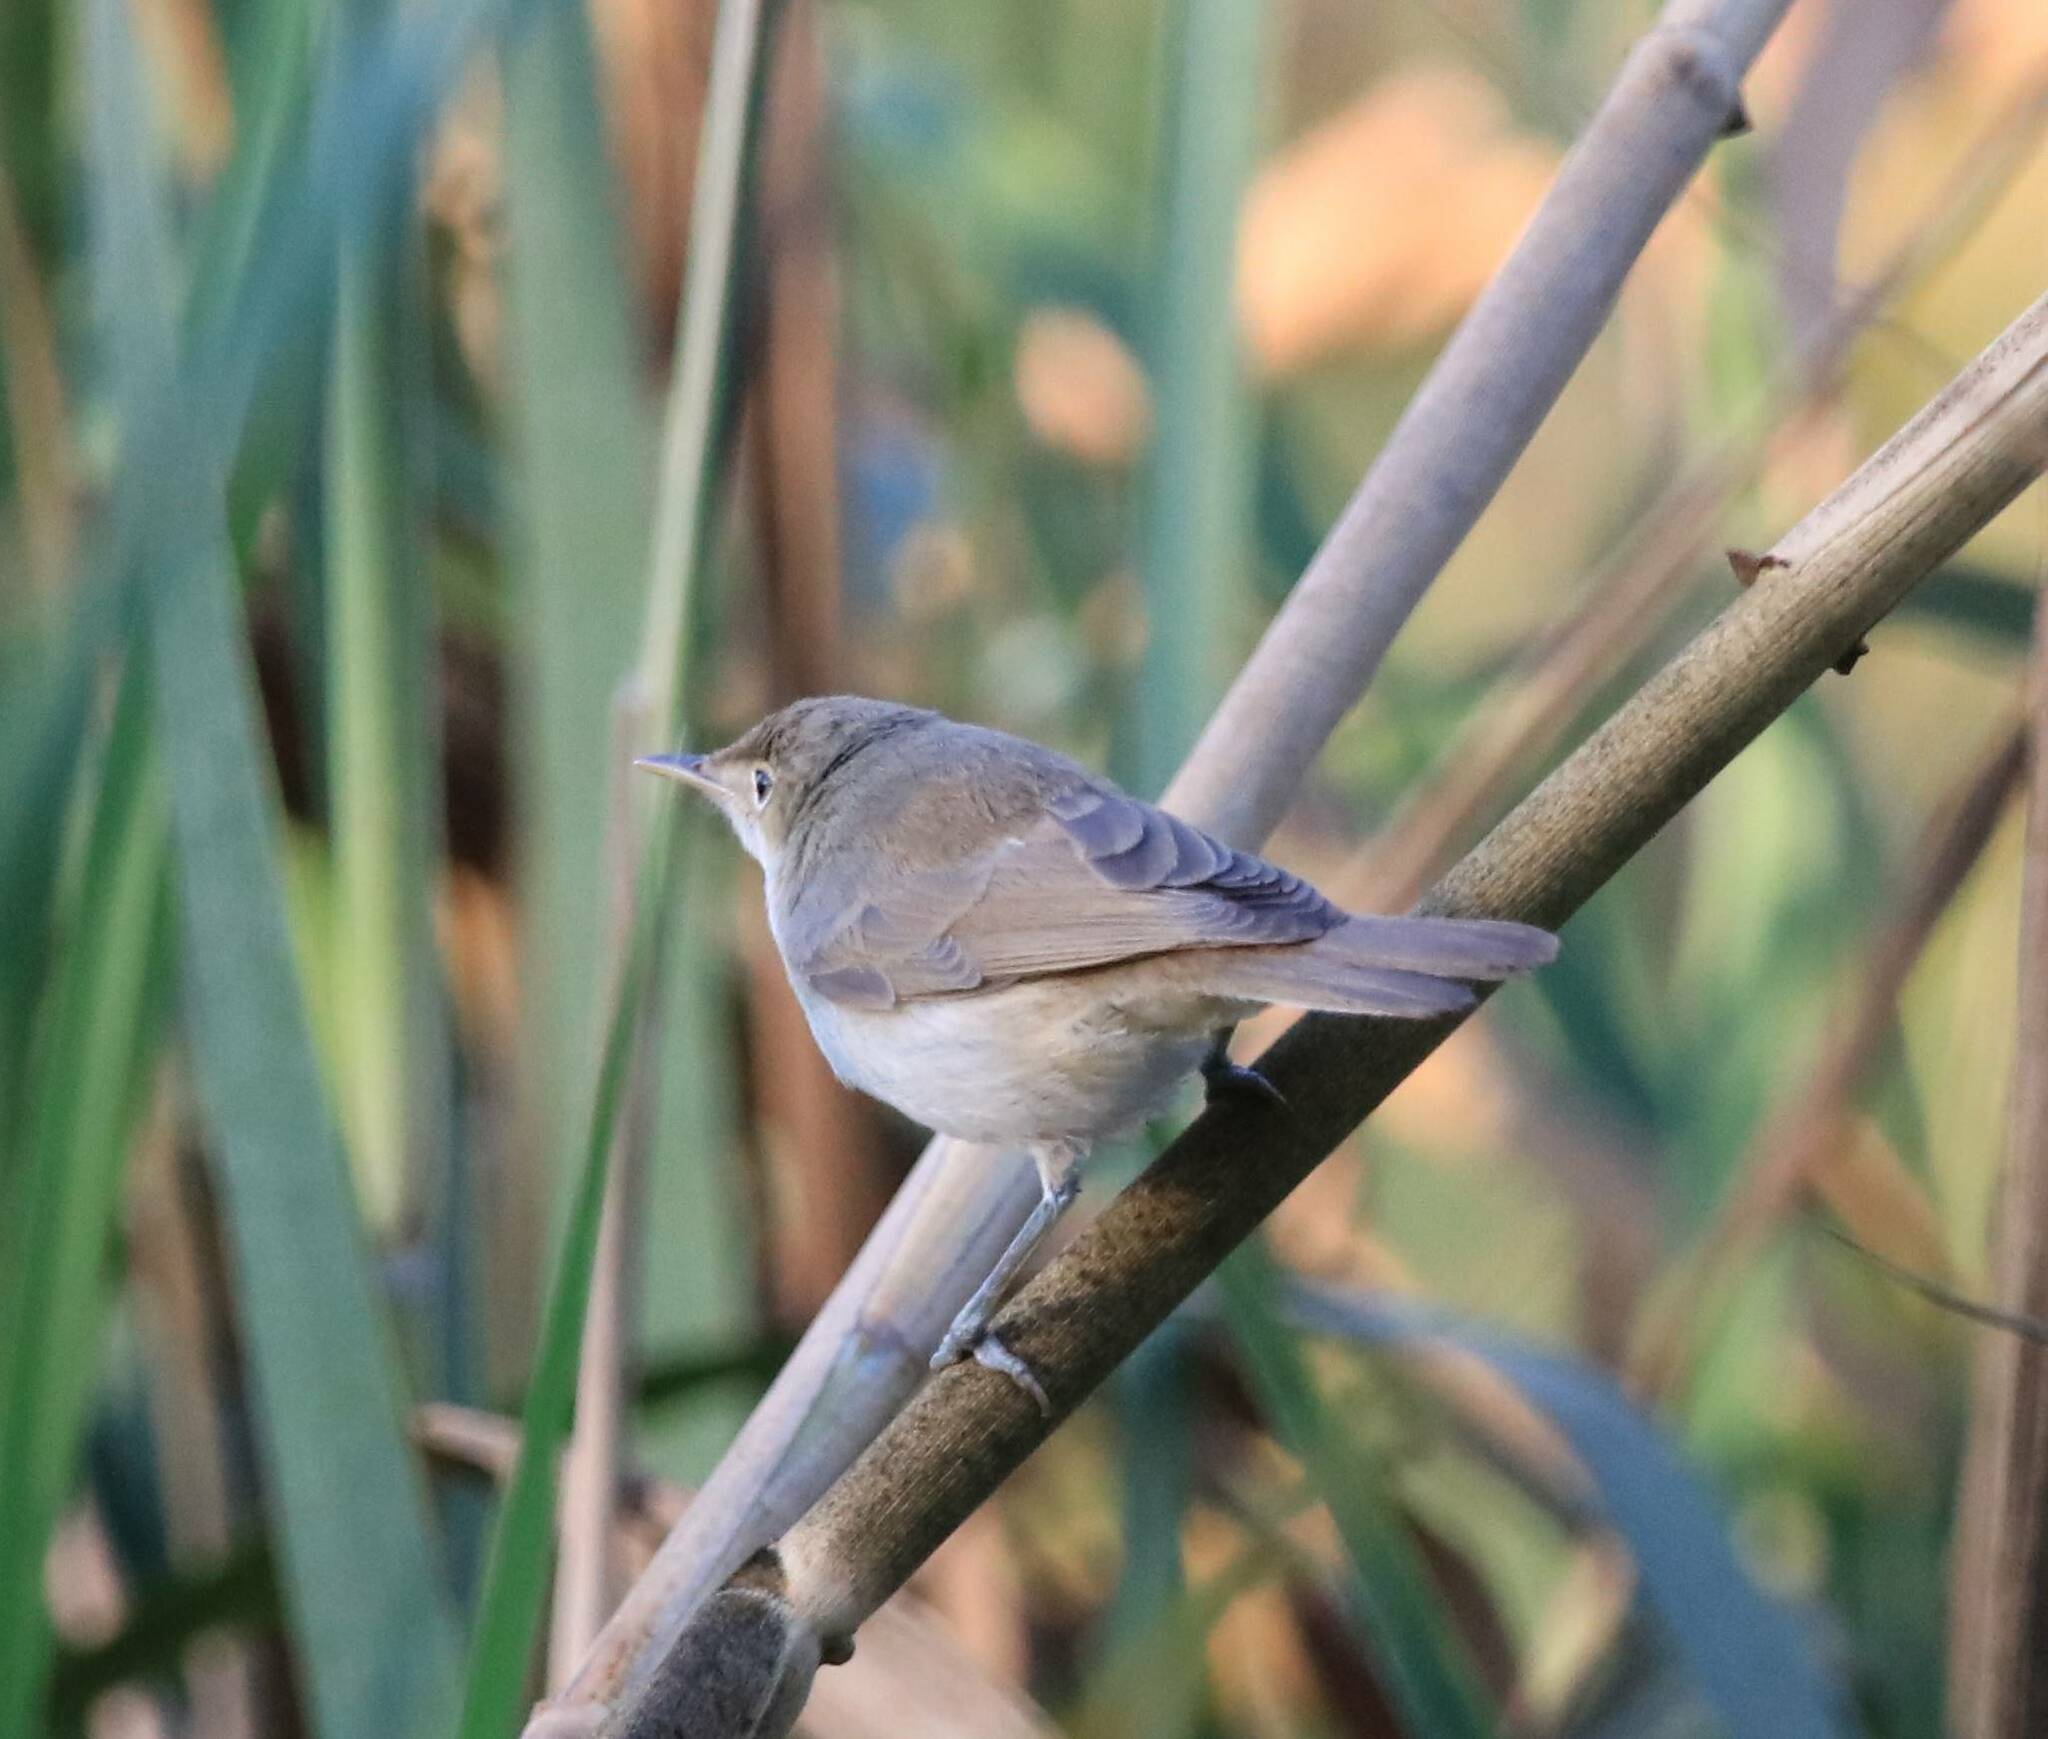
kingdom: Animalia
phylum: Chordata
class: Aves
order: Passeriformes
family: Acrocephalidae
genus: Acrocephalus
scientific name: Acrocephalus scirpaceus
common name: Eurasian reed warbler
